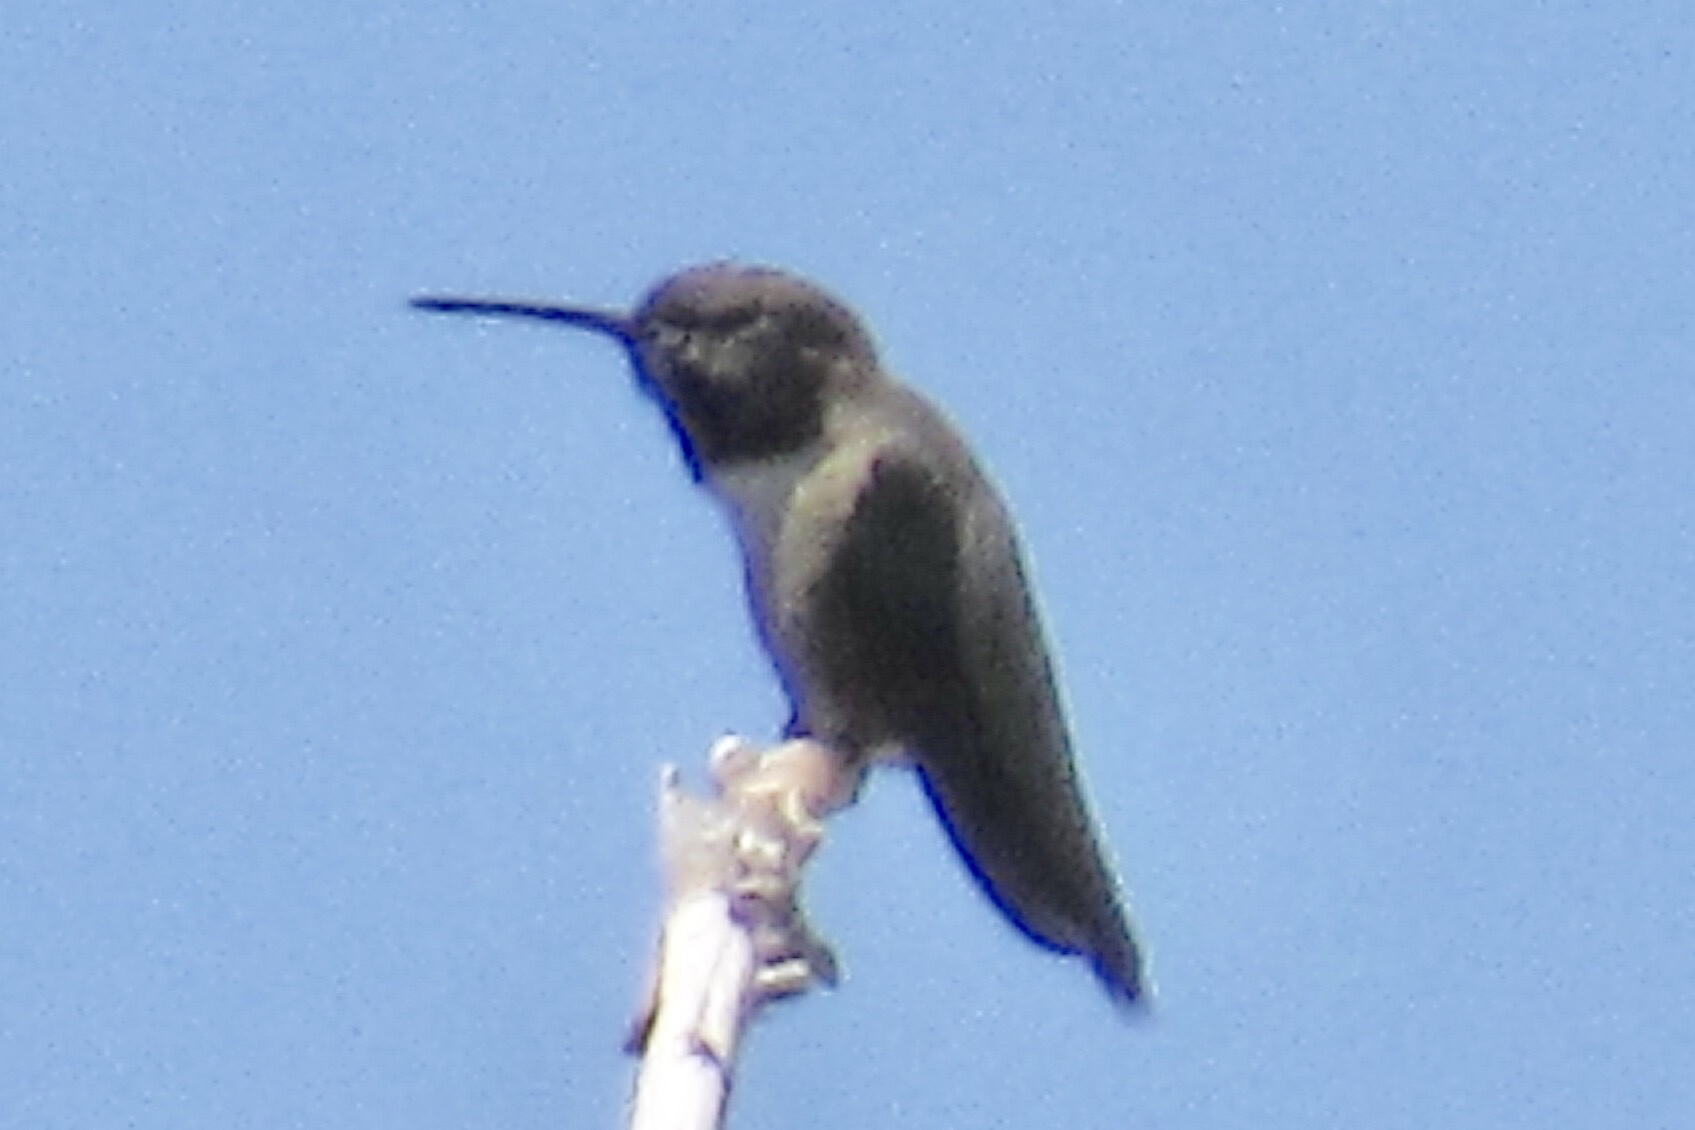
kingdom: Animalia
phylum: Chordata
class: Aves
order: Apodiformes
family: Trochilidae
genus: Archilochus
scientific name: Archilochus alexandri
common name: Black-chinned hummingbird
